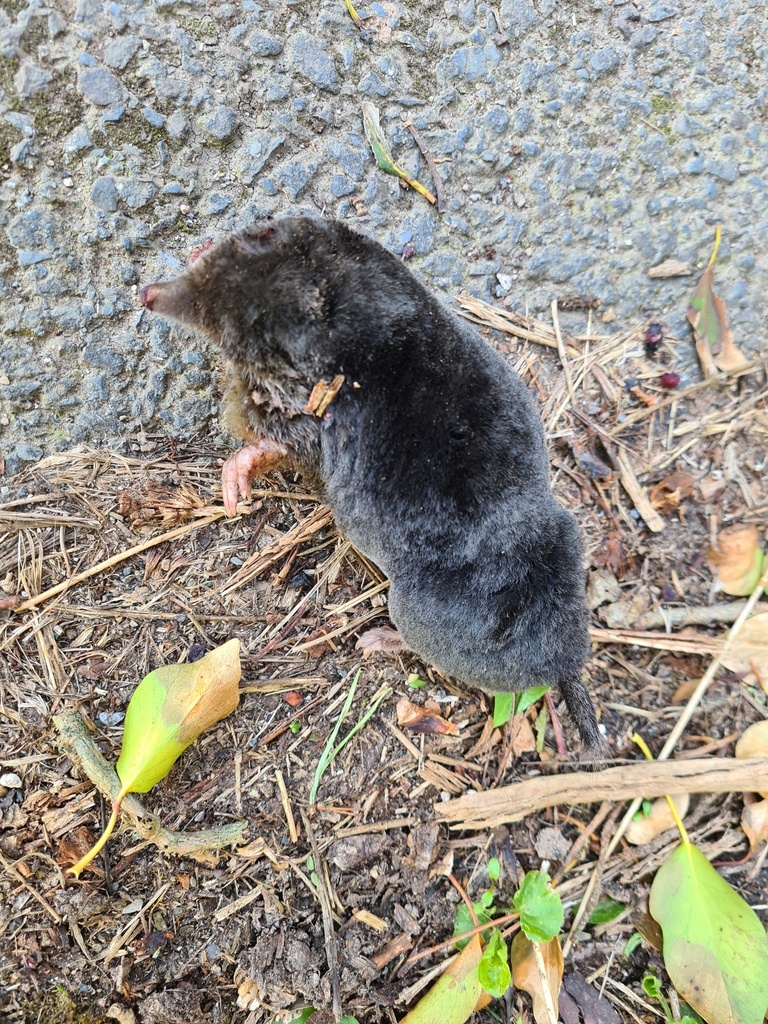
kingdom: Animalia
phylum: Chordata
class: Mammalia
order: Soricomorpha
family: Talpidae
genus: Talpa
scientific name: Talpa europaea
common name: European mole
